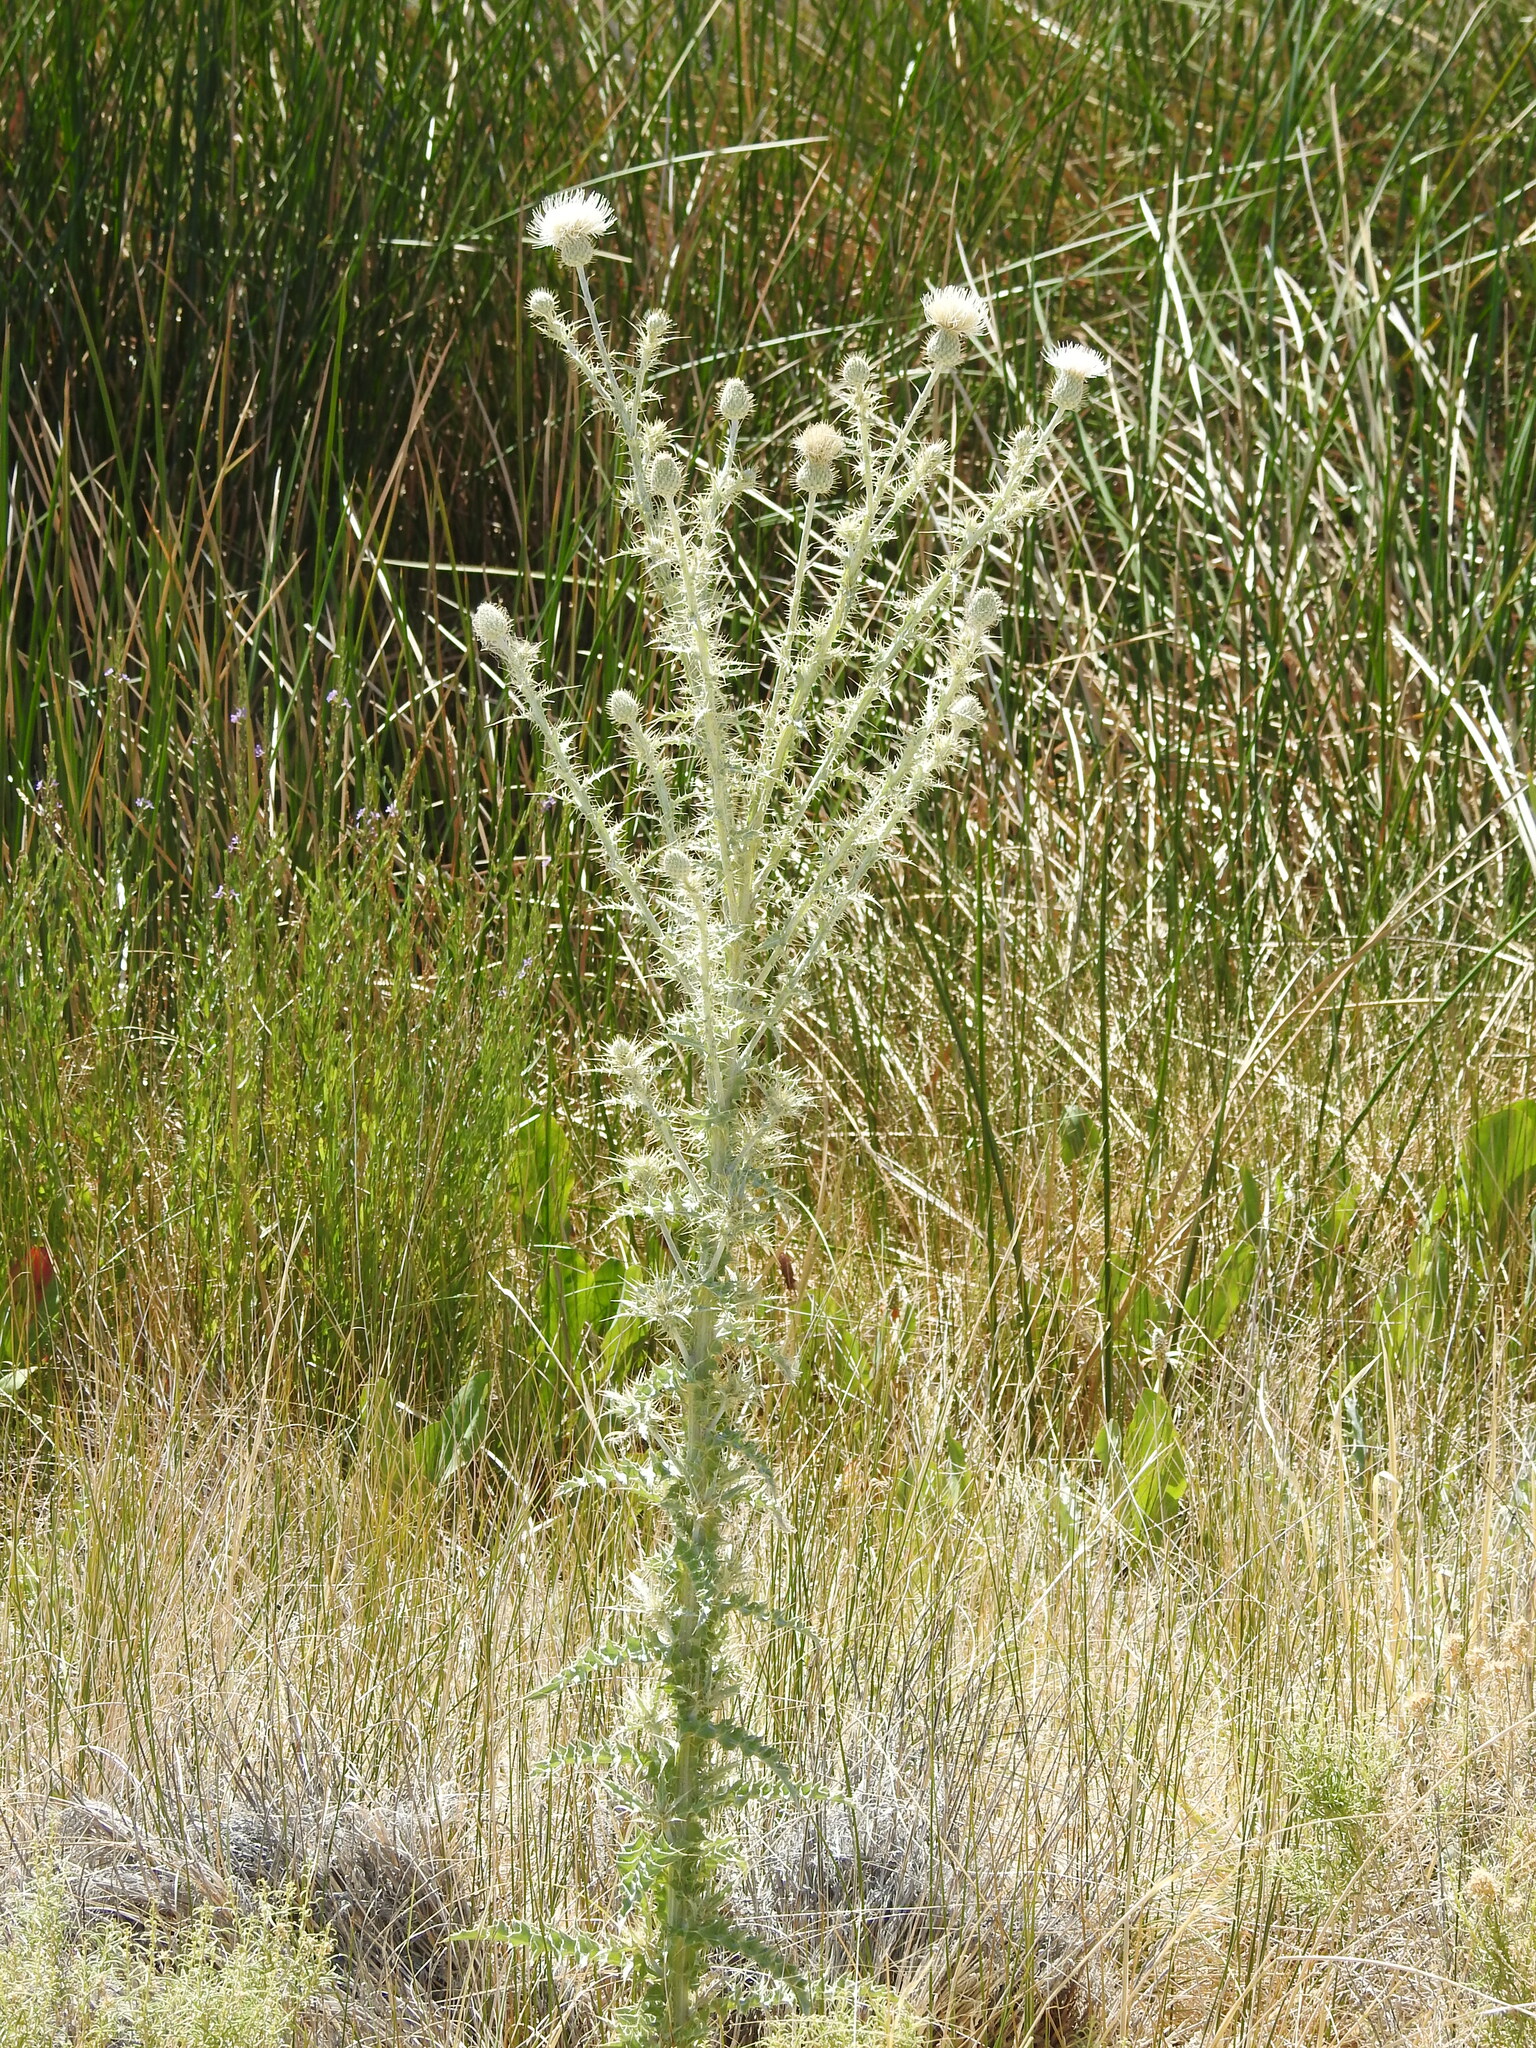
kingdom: Plantae
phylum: Tracheophyta
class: Magnoliopsida
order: Asterales
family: Asteraceae
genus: Cirsium
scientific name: Cirsium mohavense
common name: Mojave thistle
